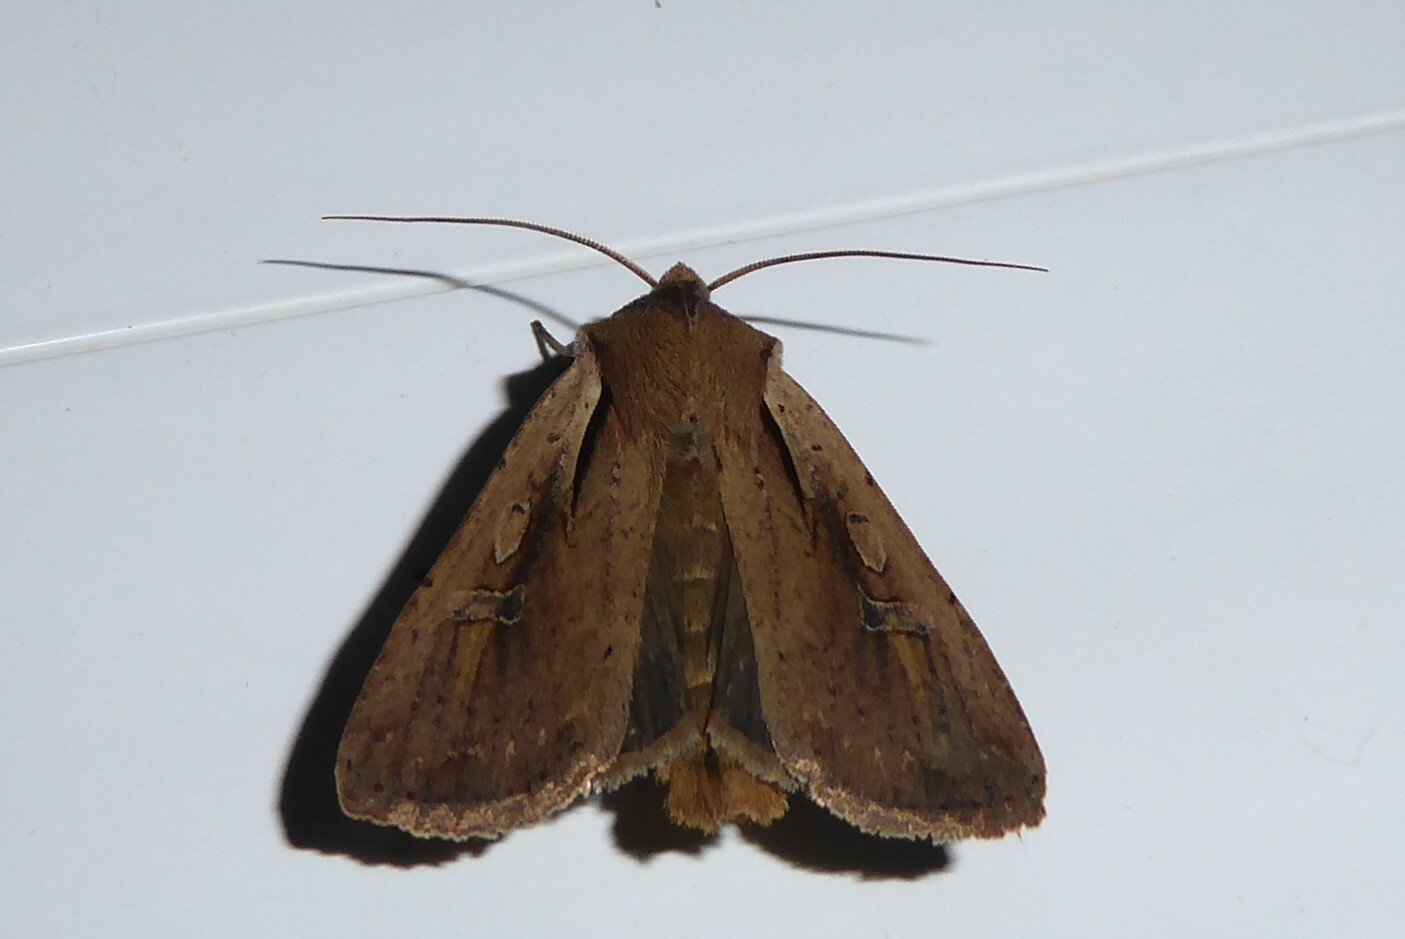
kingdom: Animalia
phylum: Arthropoda
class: Insecta
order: Lepidoptera
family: Noctuidae
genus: Ichneutica
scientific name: Ichneutica atristriga
